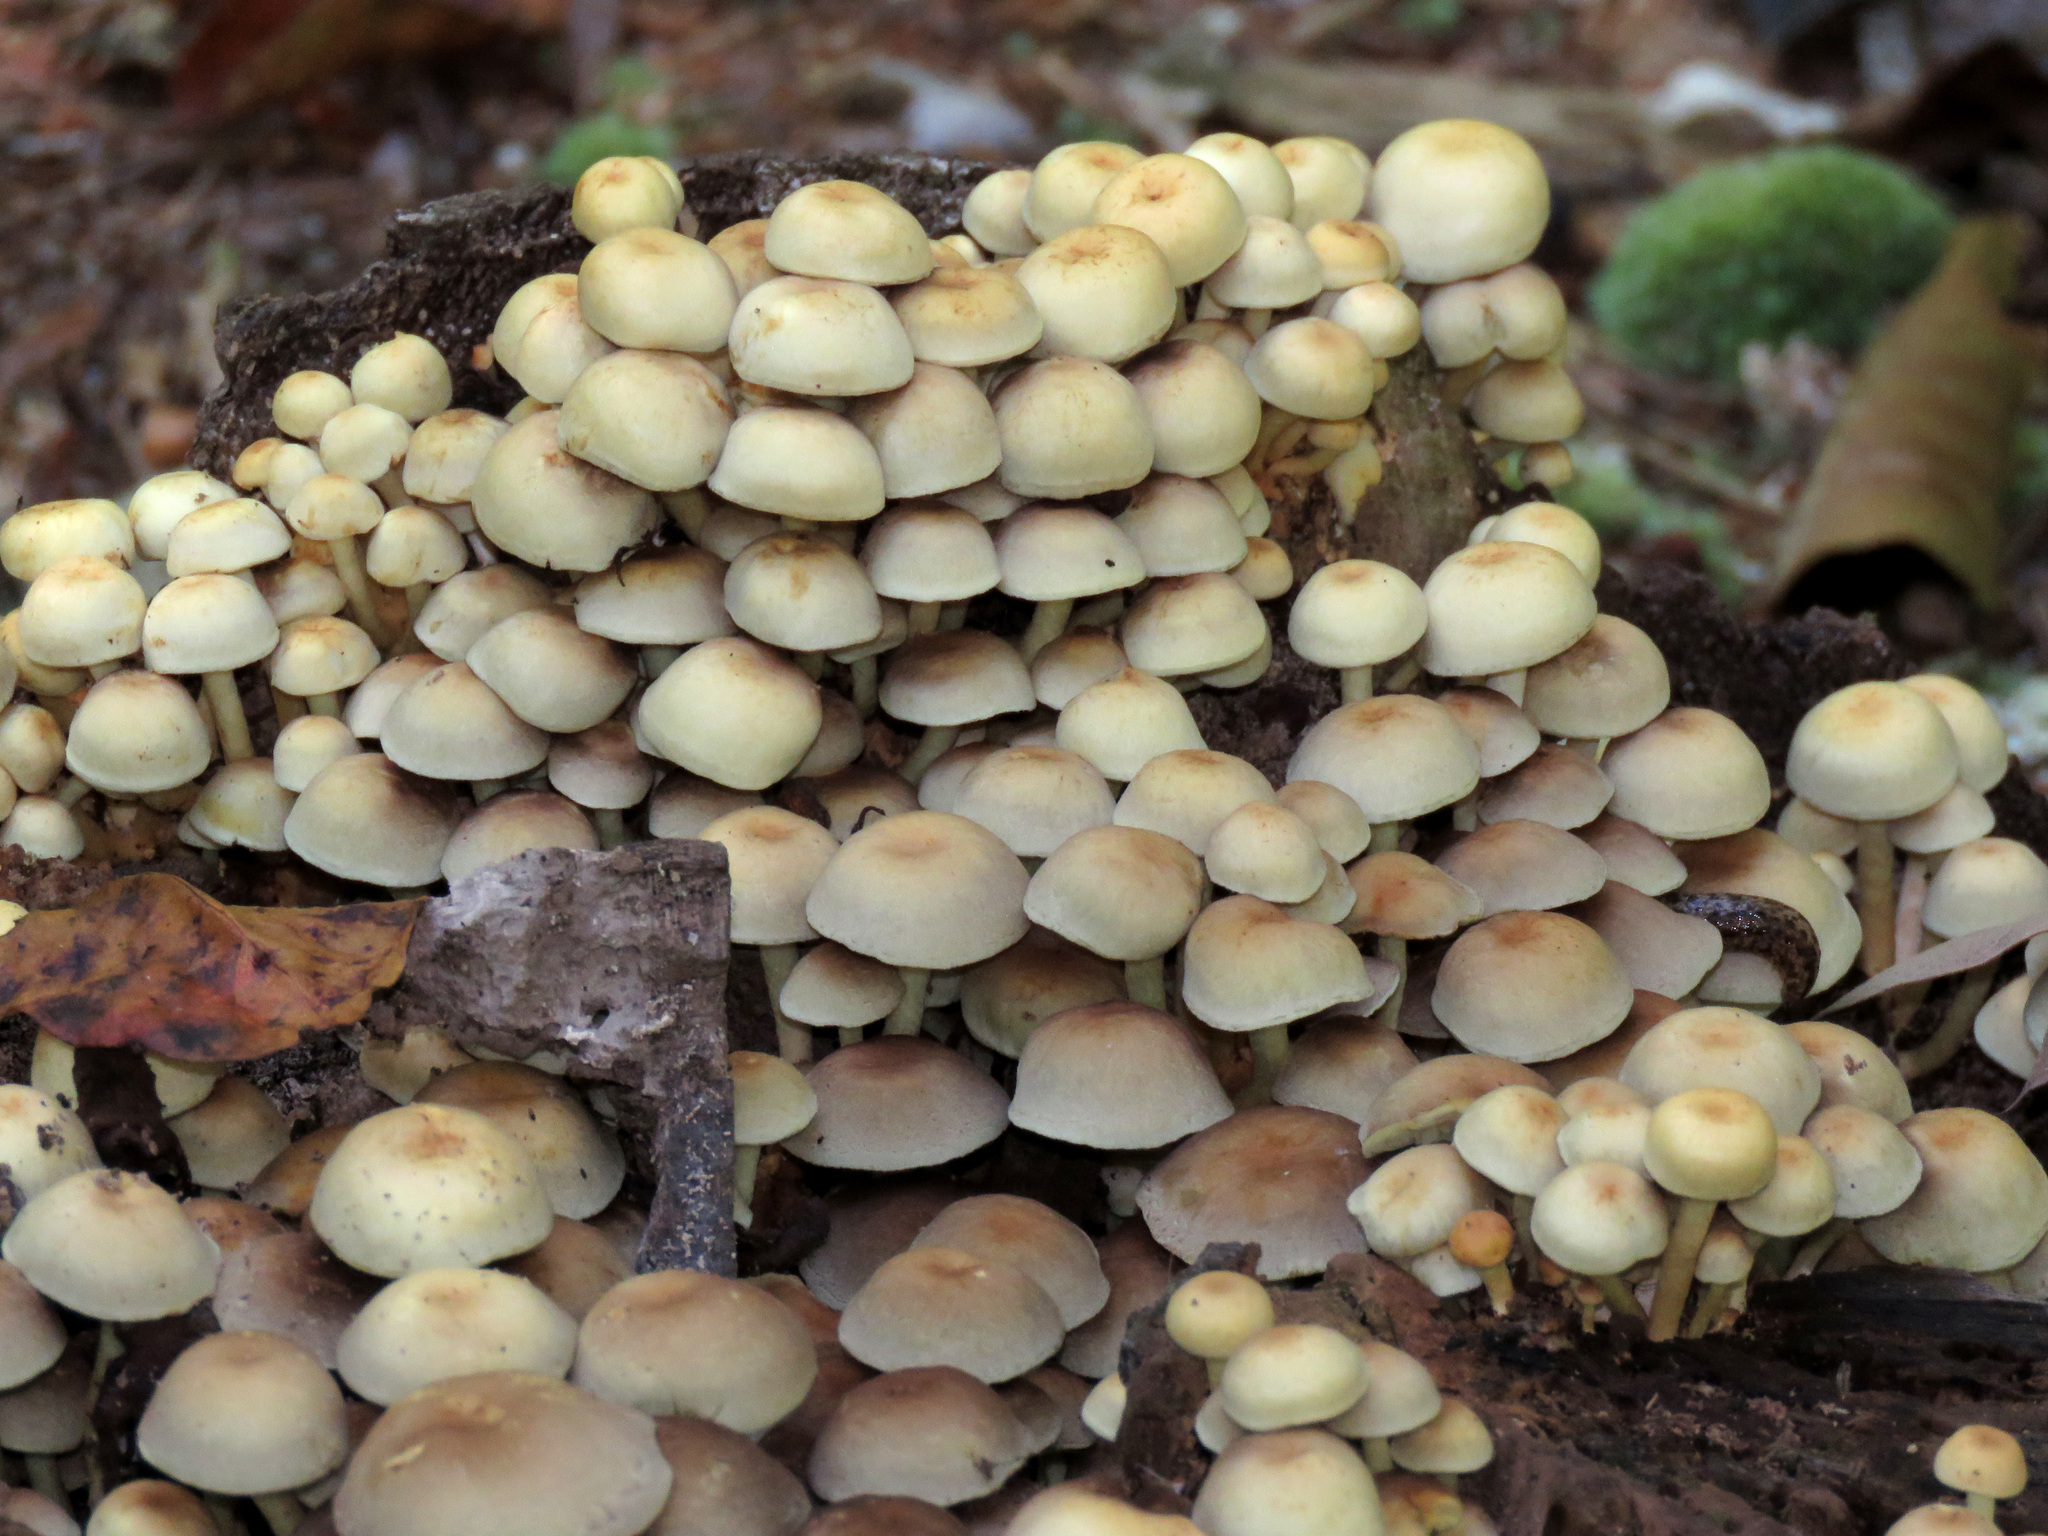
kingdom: Fungi
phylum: Basidiomycota
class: Agaricomycetes
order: Agaricales
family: Strophariaceae
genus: Hypholoma
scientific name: Hypholoma fasciculare
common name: Sulphur tuft
